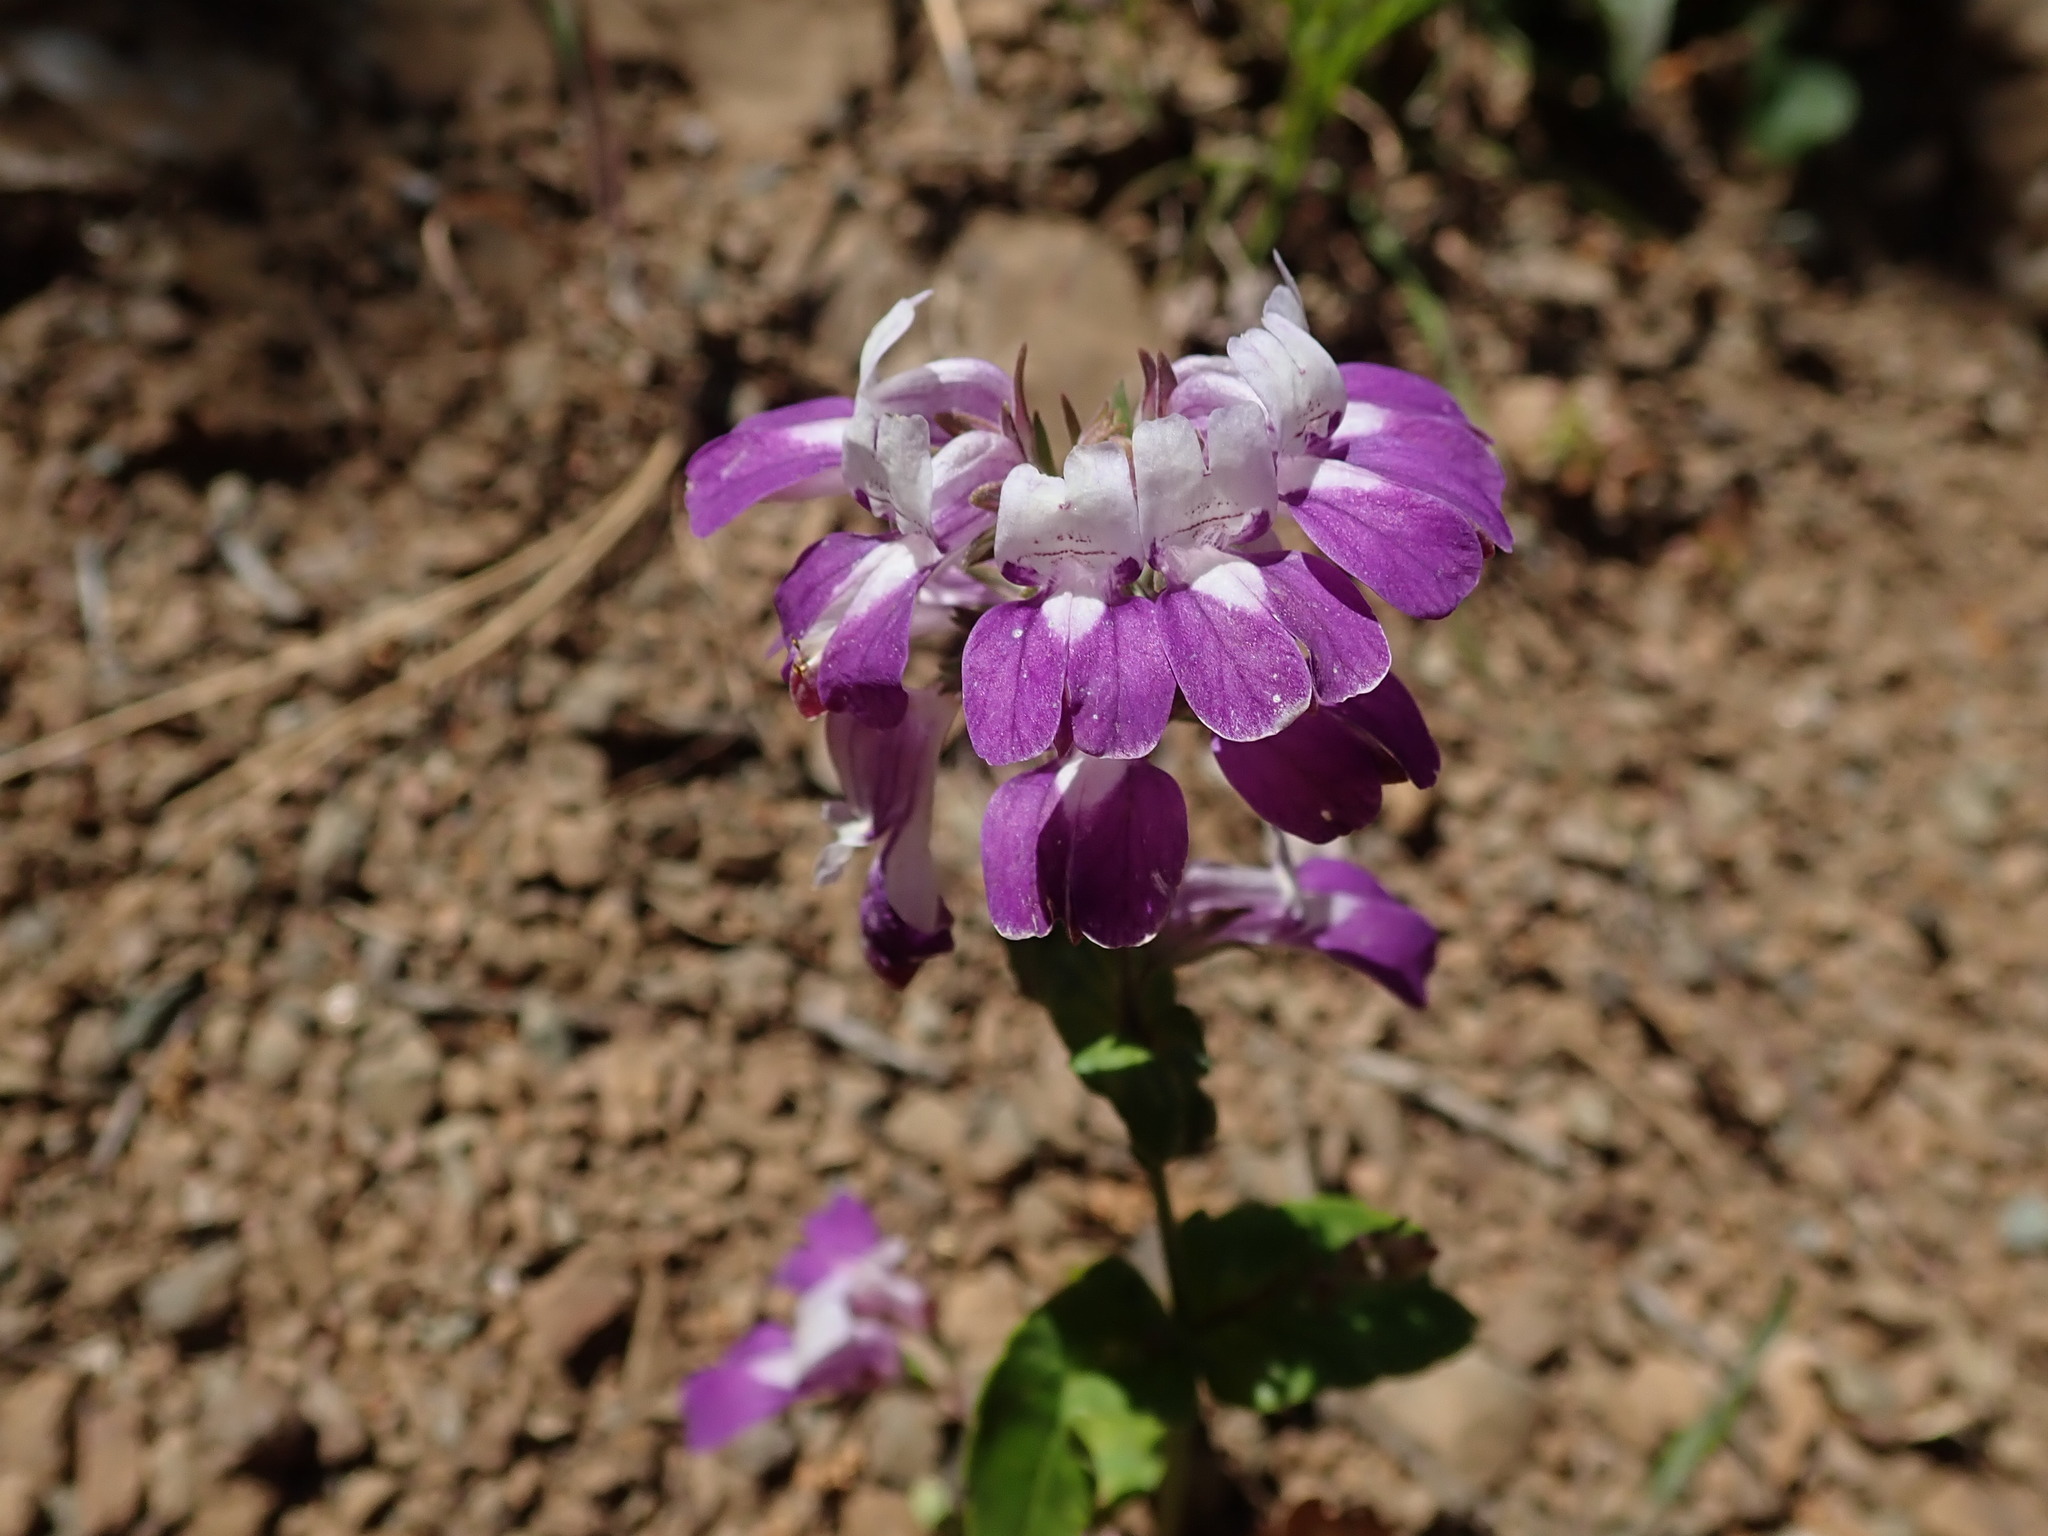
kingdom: Plantae
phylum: Tracheophyta
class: Magnoliopsida
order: Lamiales
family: Plantaginaceae
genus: Collinsia
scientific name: Collinsia heterophylla
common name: Chinese-houses
